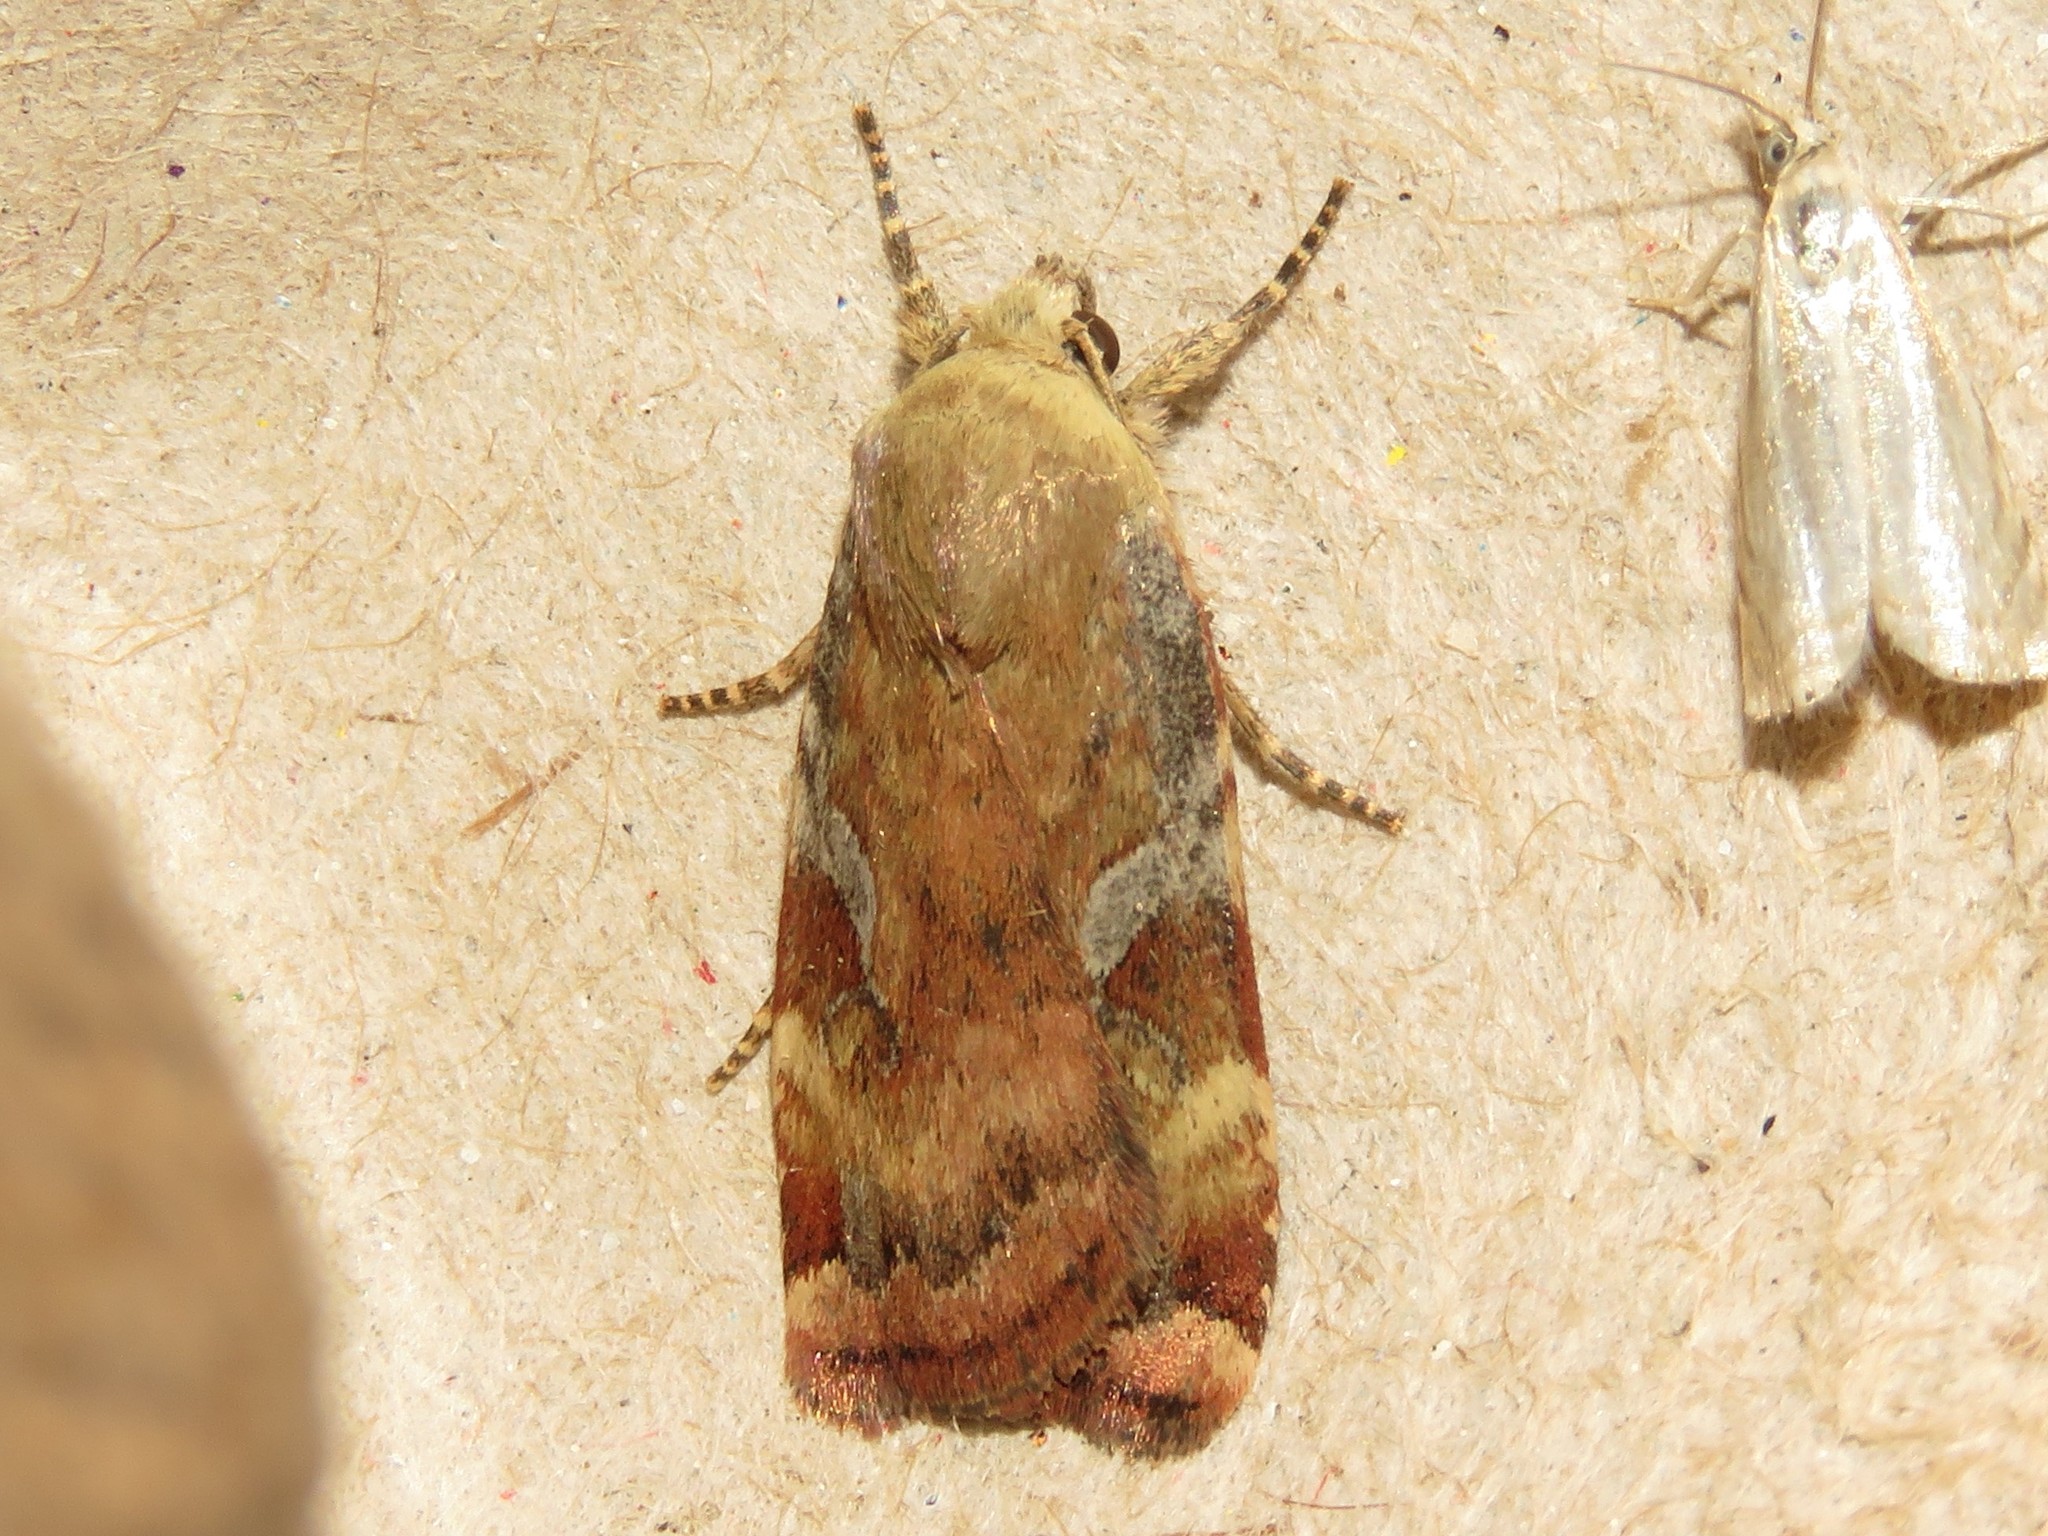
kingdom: Animalia
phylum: Arthropoda
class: Insecta
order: Lepidoptera
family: Noctuidae
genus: Cryptocala
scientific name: Cryptocala acadiensis
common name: Catocaline dart
